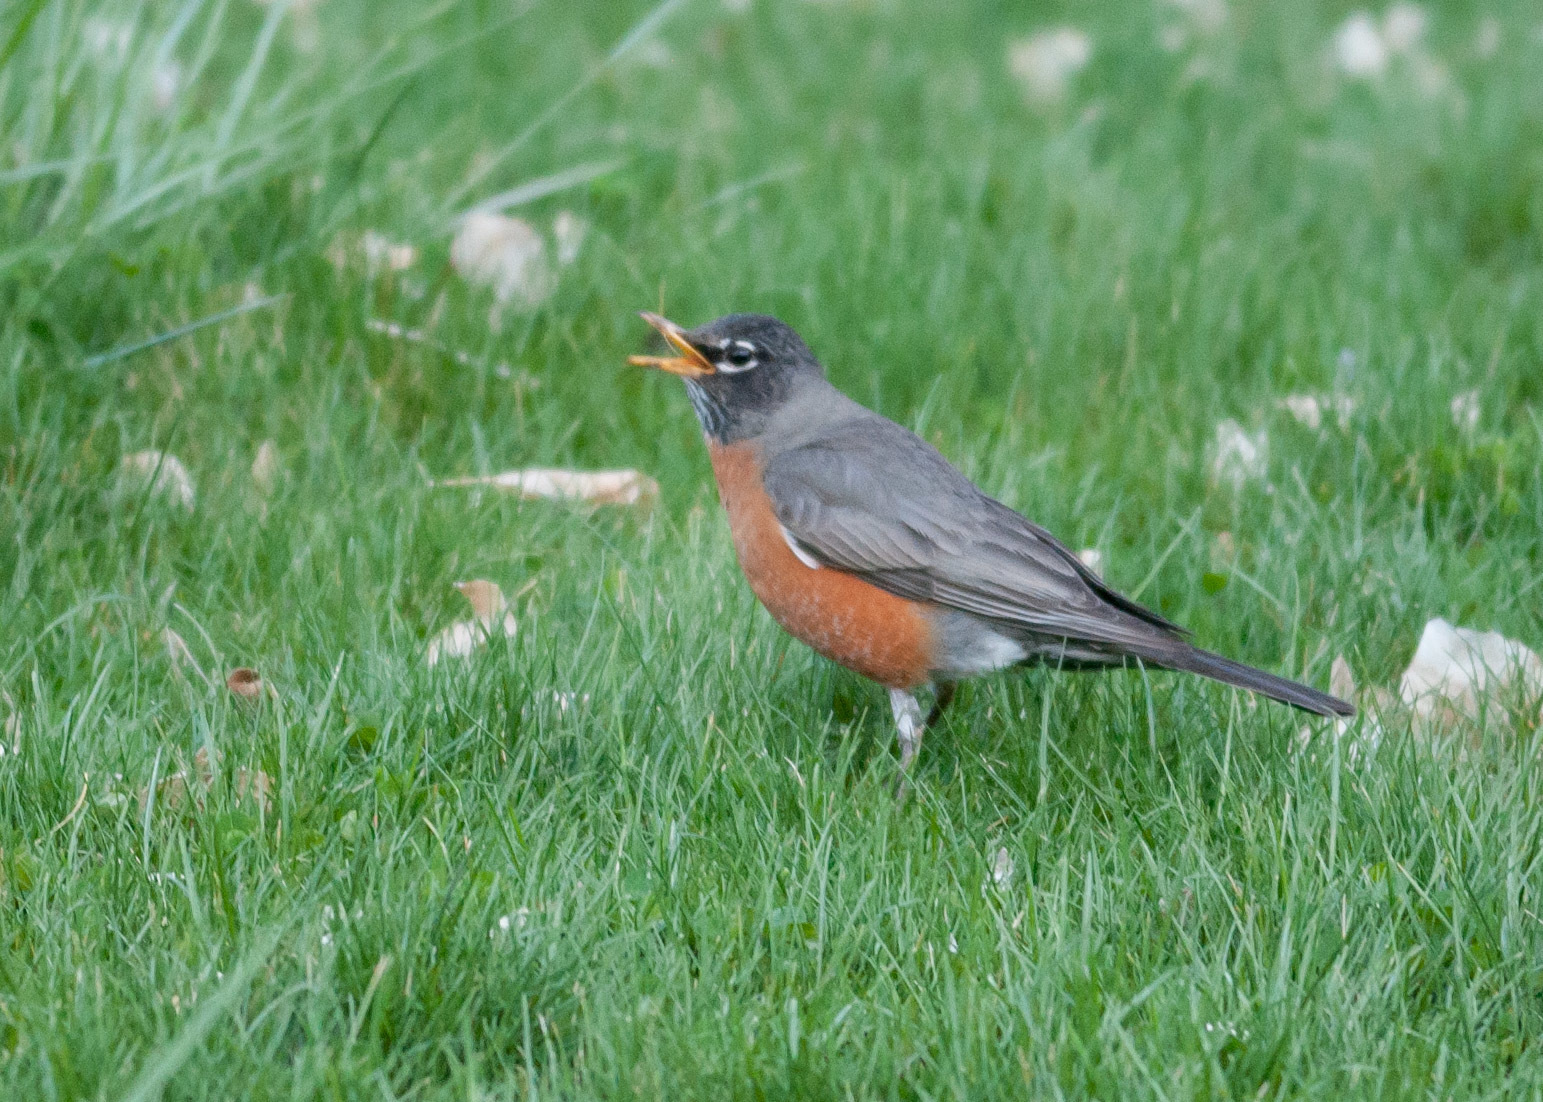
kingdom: Animalia
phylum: Chordata
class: Aves
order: Passeriformes
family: Turdidae
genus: Turdus
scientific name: Turdus migratorius
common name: American robin
